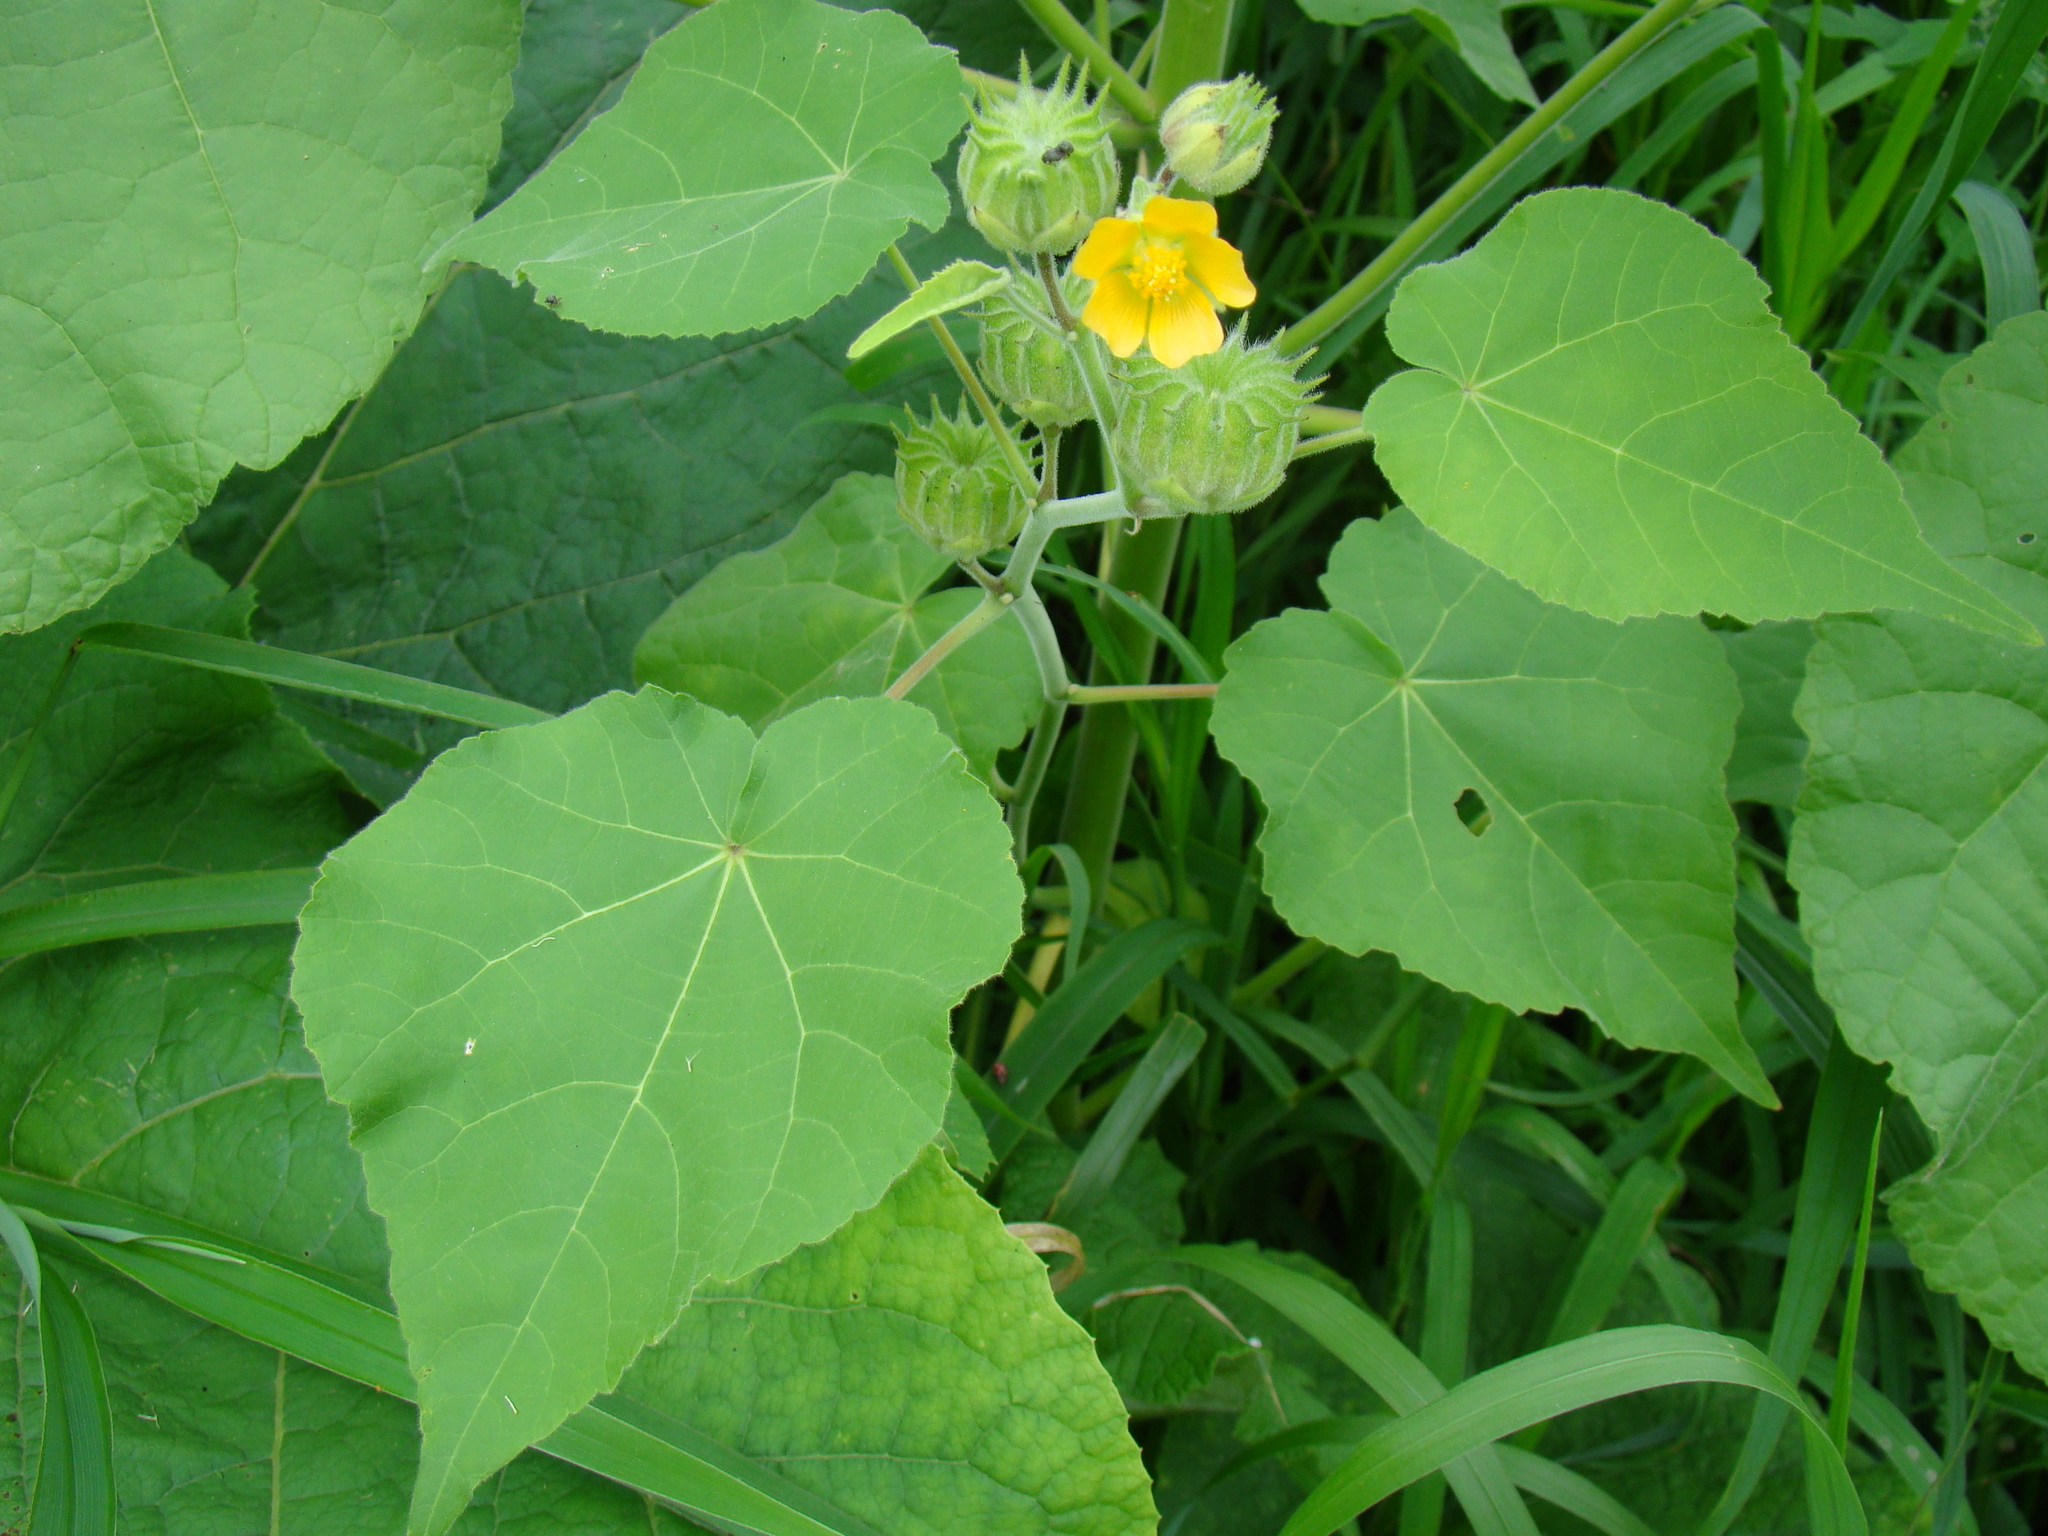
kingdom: Plantae
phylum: Tracheophyta
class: Magnoliopsida
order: Malvales
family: Malvaceae
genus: Abutilon
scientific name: Abutilon theophrasti
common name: Velvetleaf
